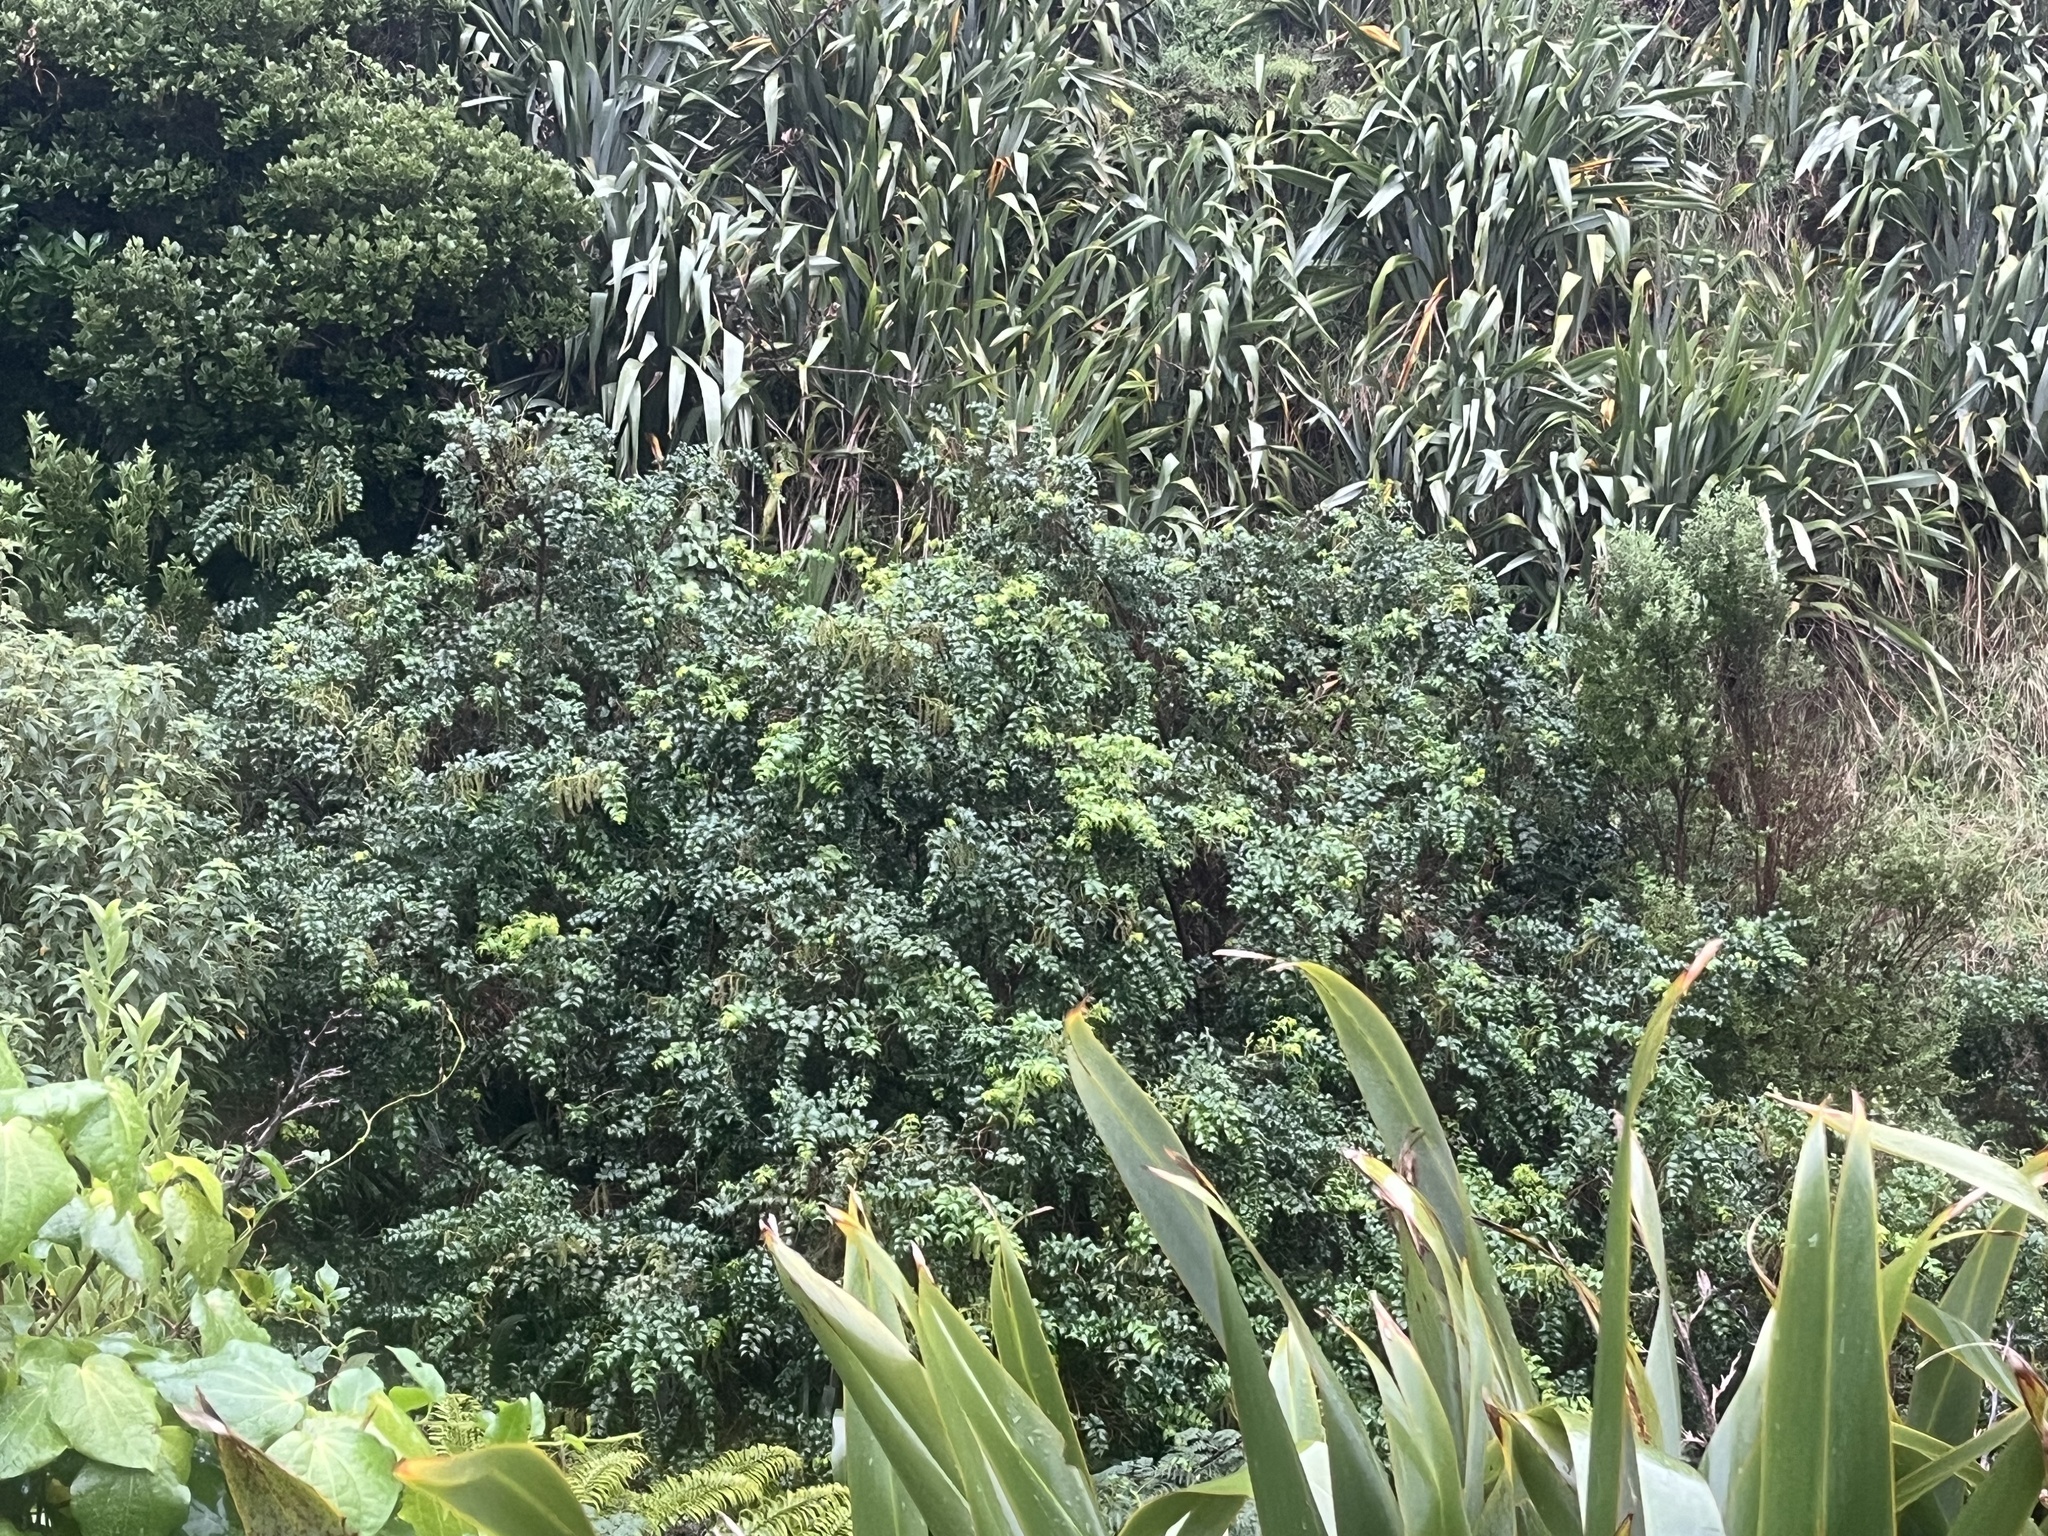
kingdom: Plantae
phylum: Tracheophyta
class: Magnoliopsida
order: Cucurbitales
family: Coriariaceae
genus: Coriaria
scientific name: Coriaria arborea
